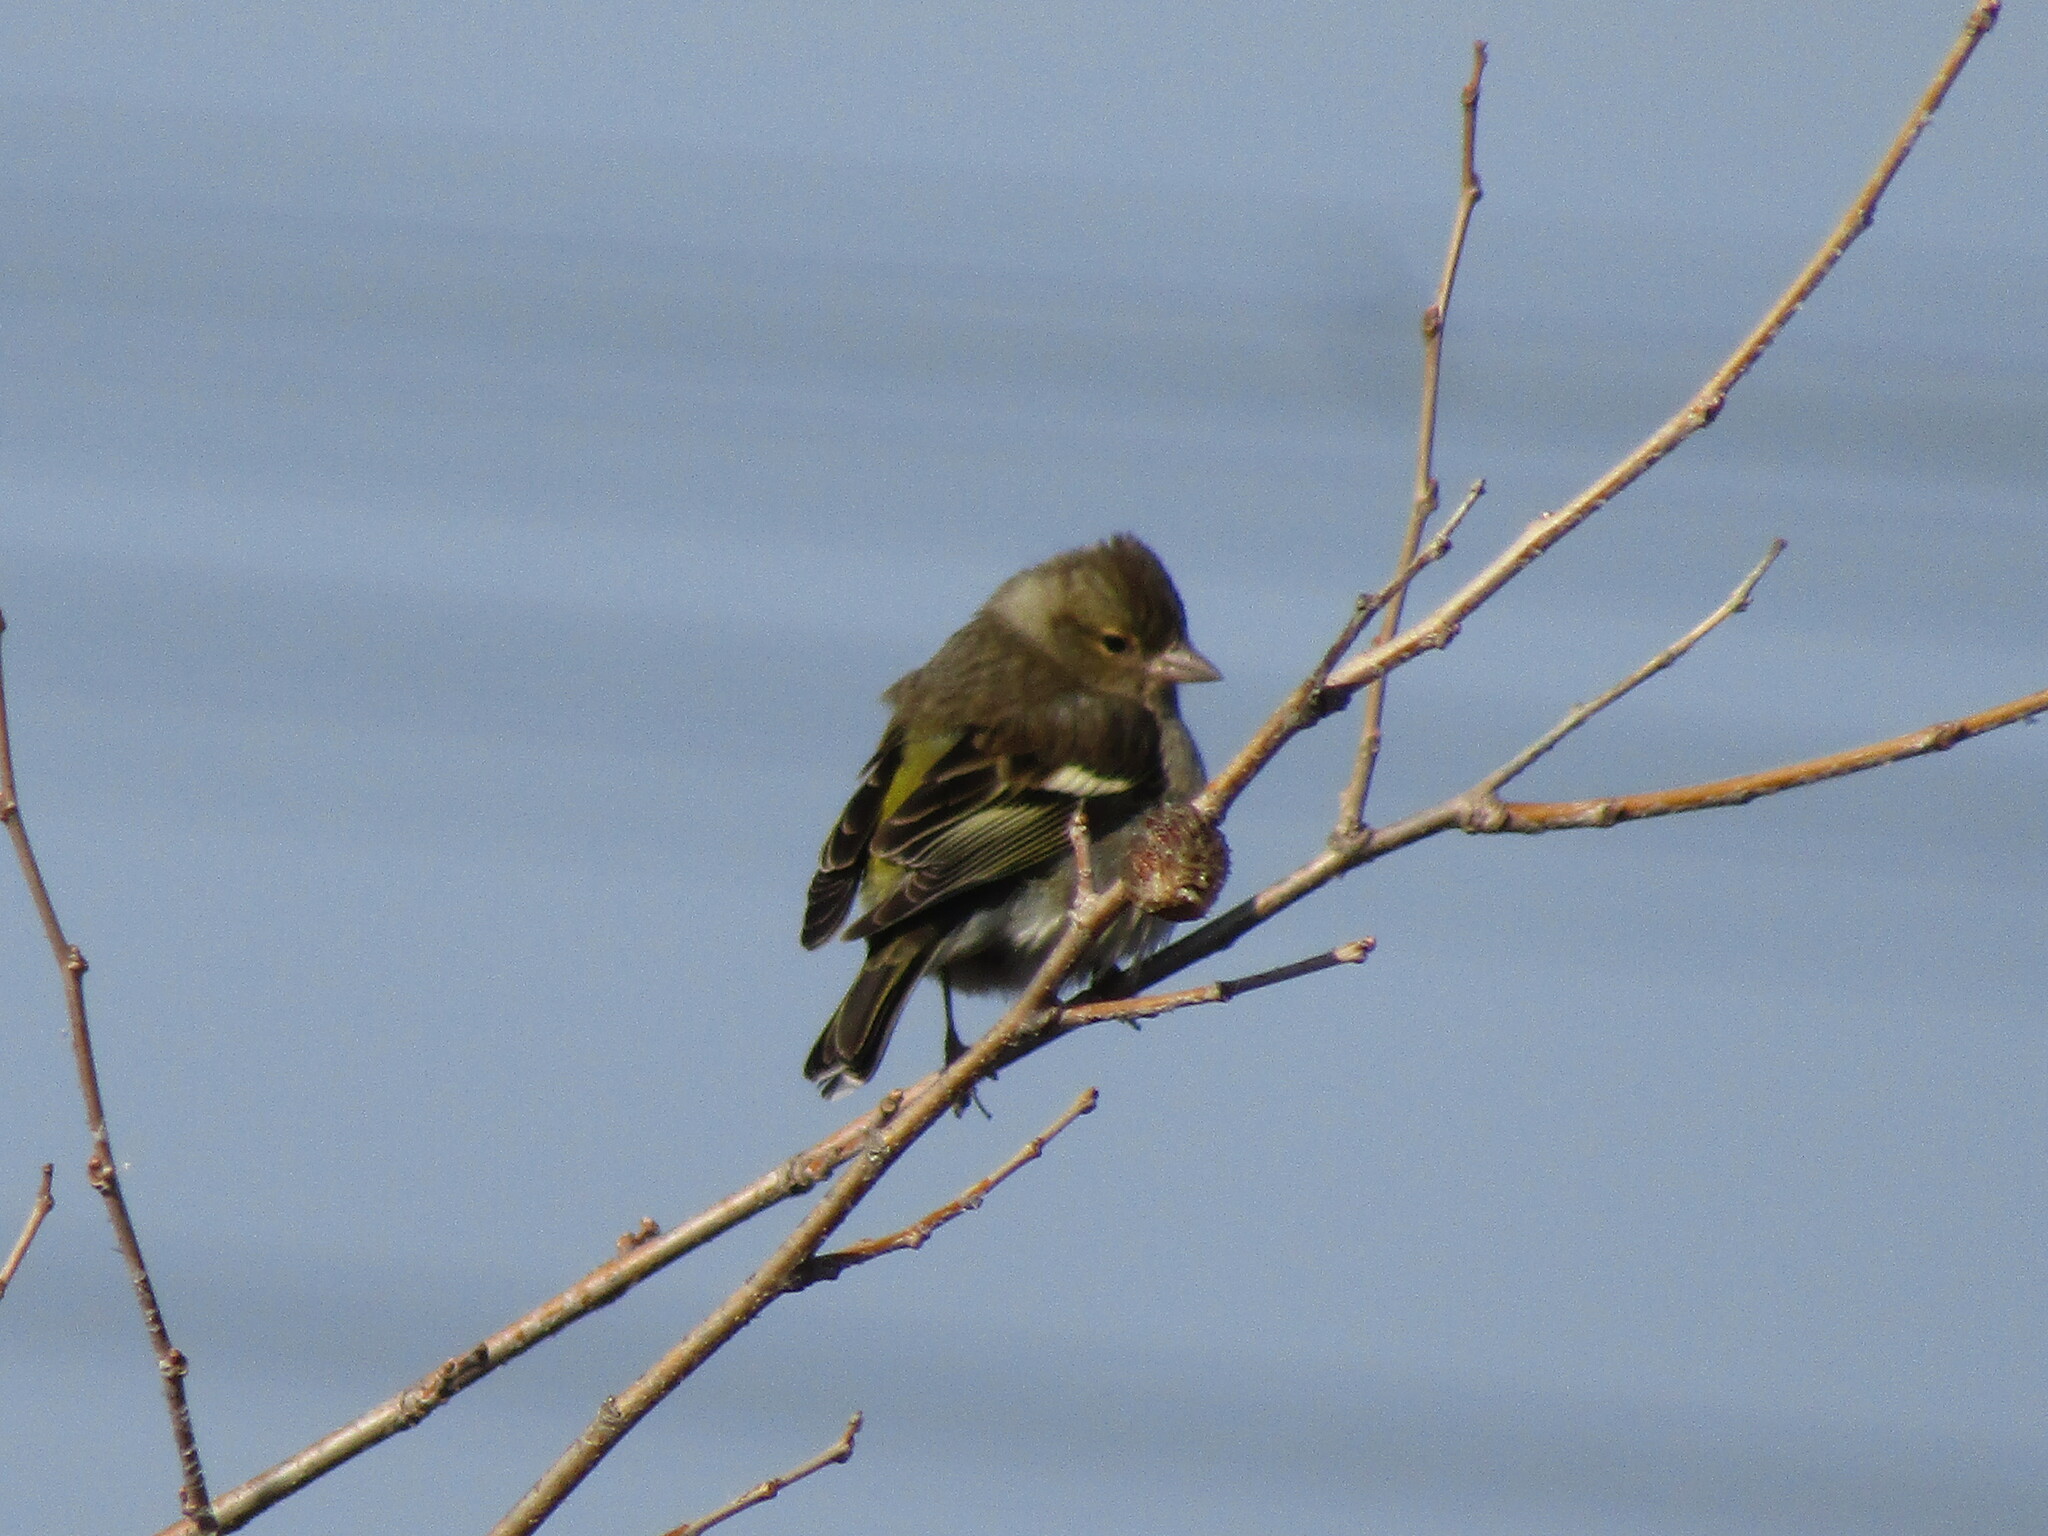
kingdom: Animalia
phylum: Chordata
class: Aves
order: Passeriformes
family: Fringillidae
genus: Fringilla
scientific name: Fringilla coelebs
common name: Common chaffinch
